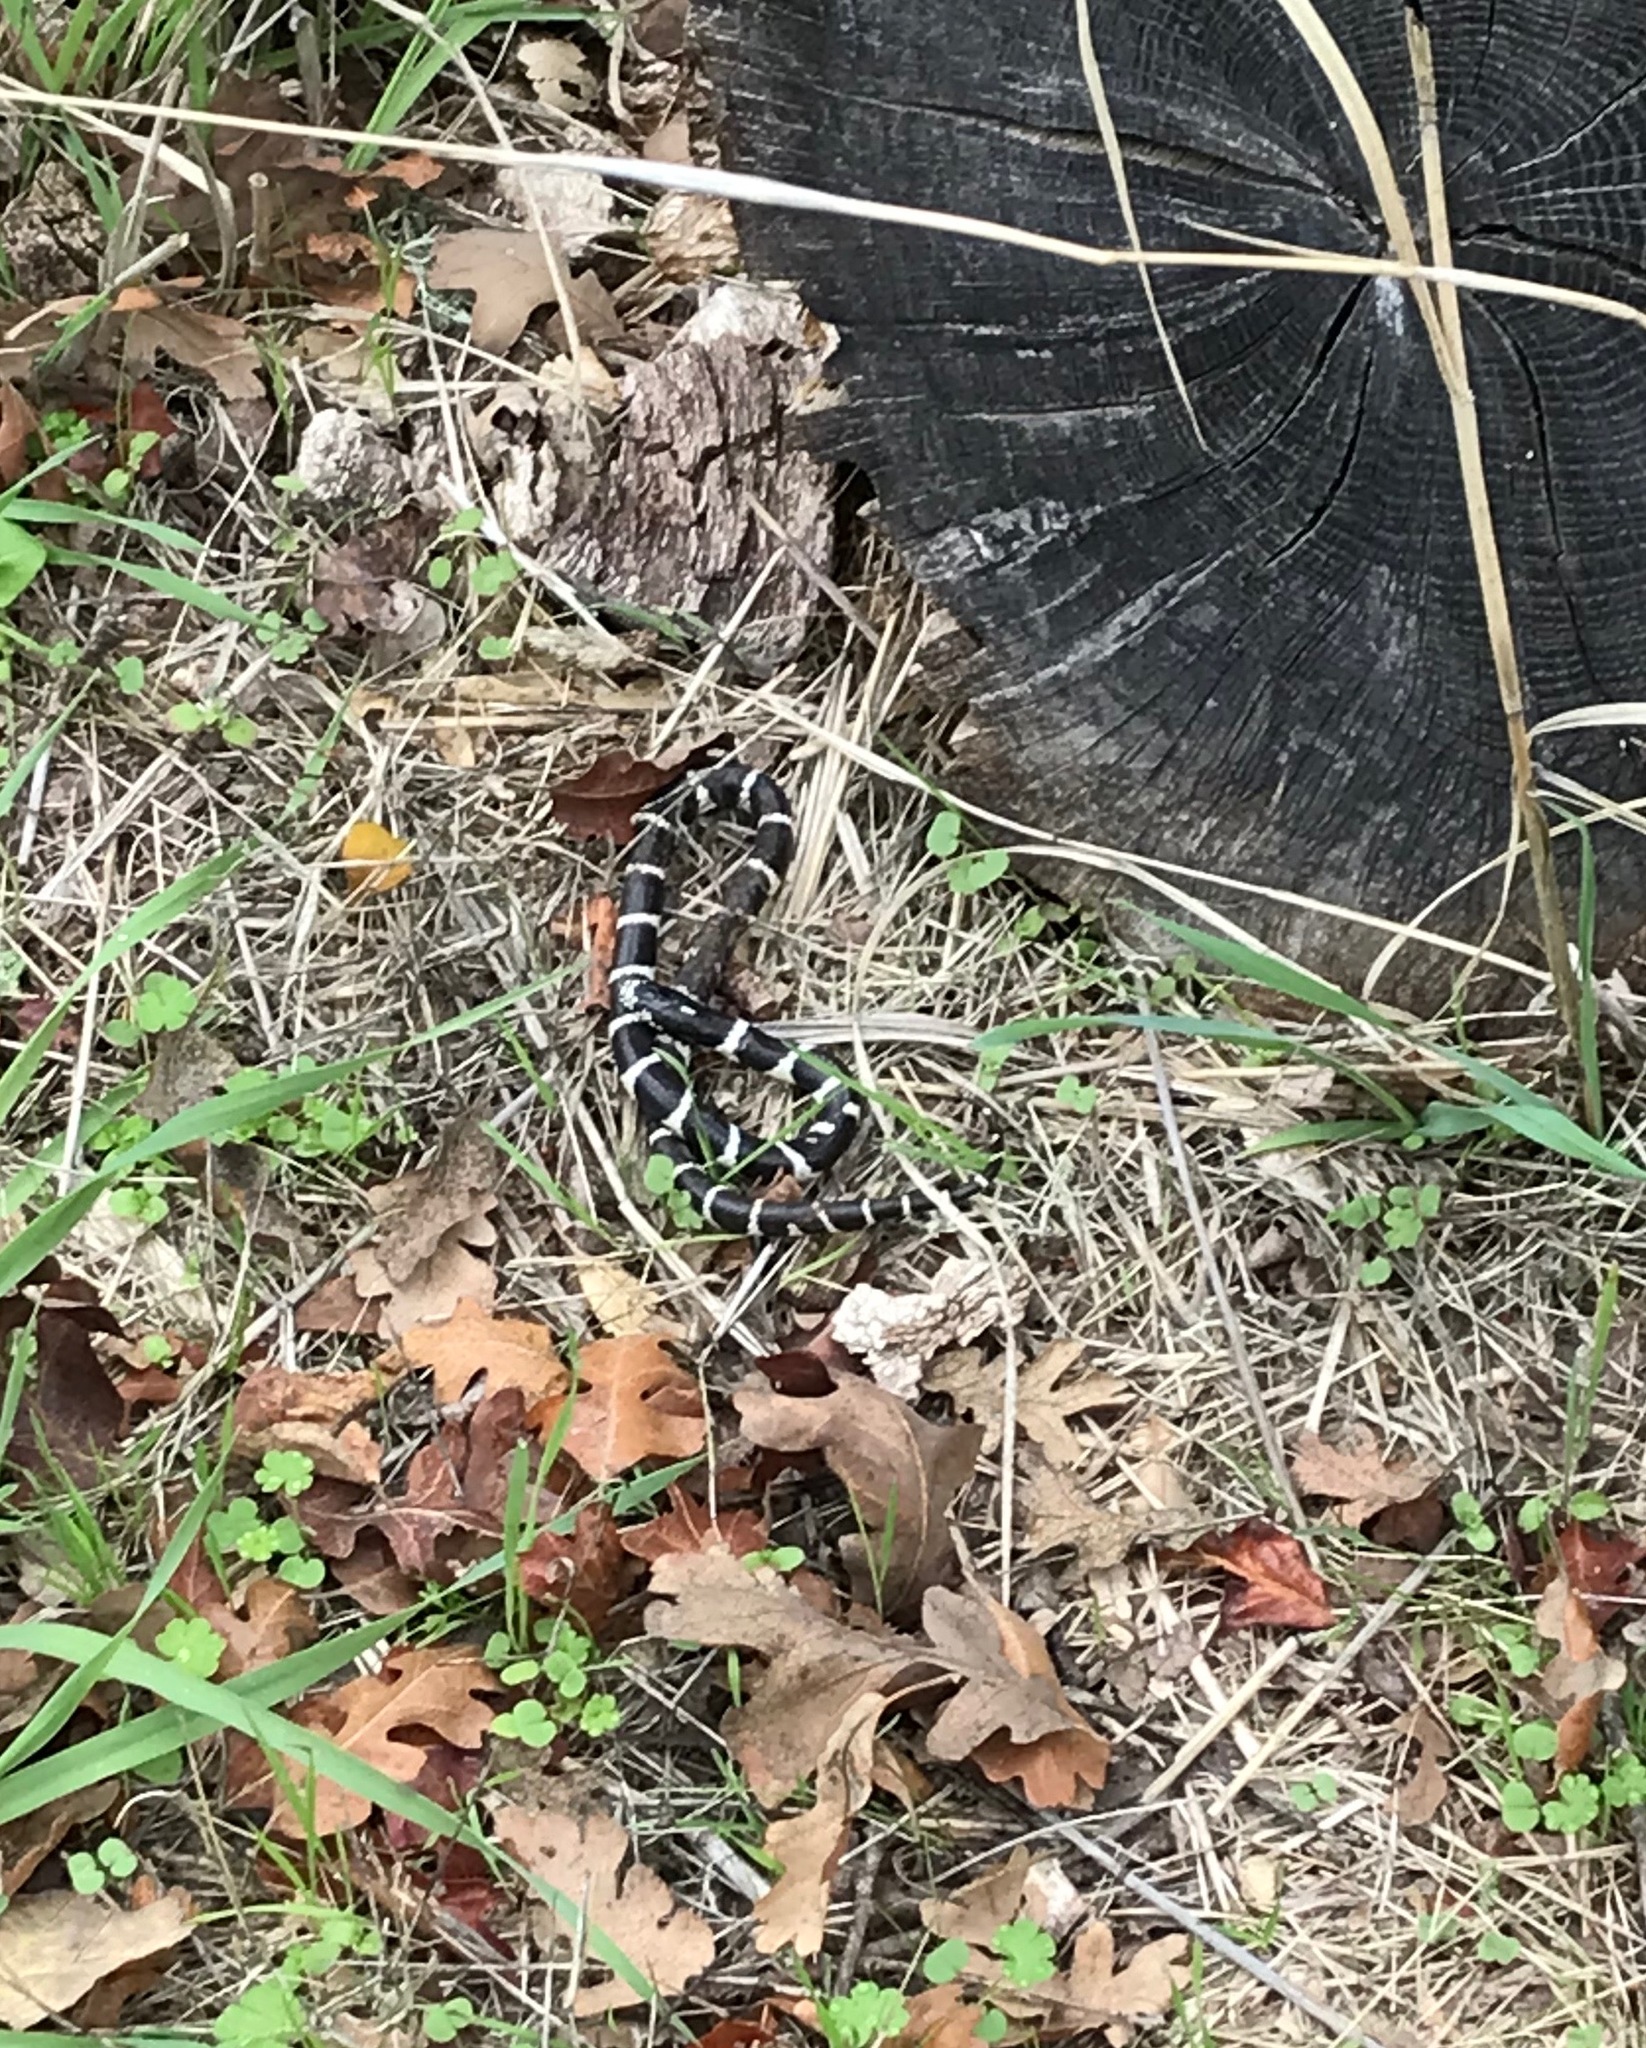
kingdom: Animalia
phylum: Chordata
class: Squamata
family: Colubridae
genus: Lampropeltis
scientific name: Lampropeltis californiae
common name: California kingsnake
